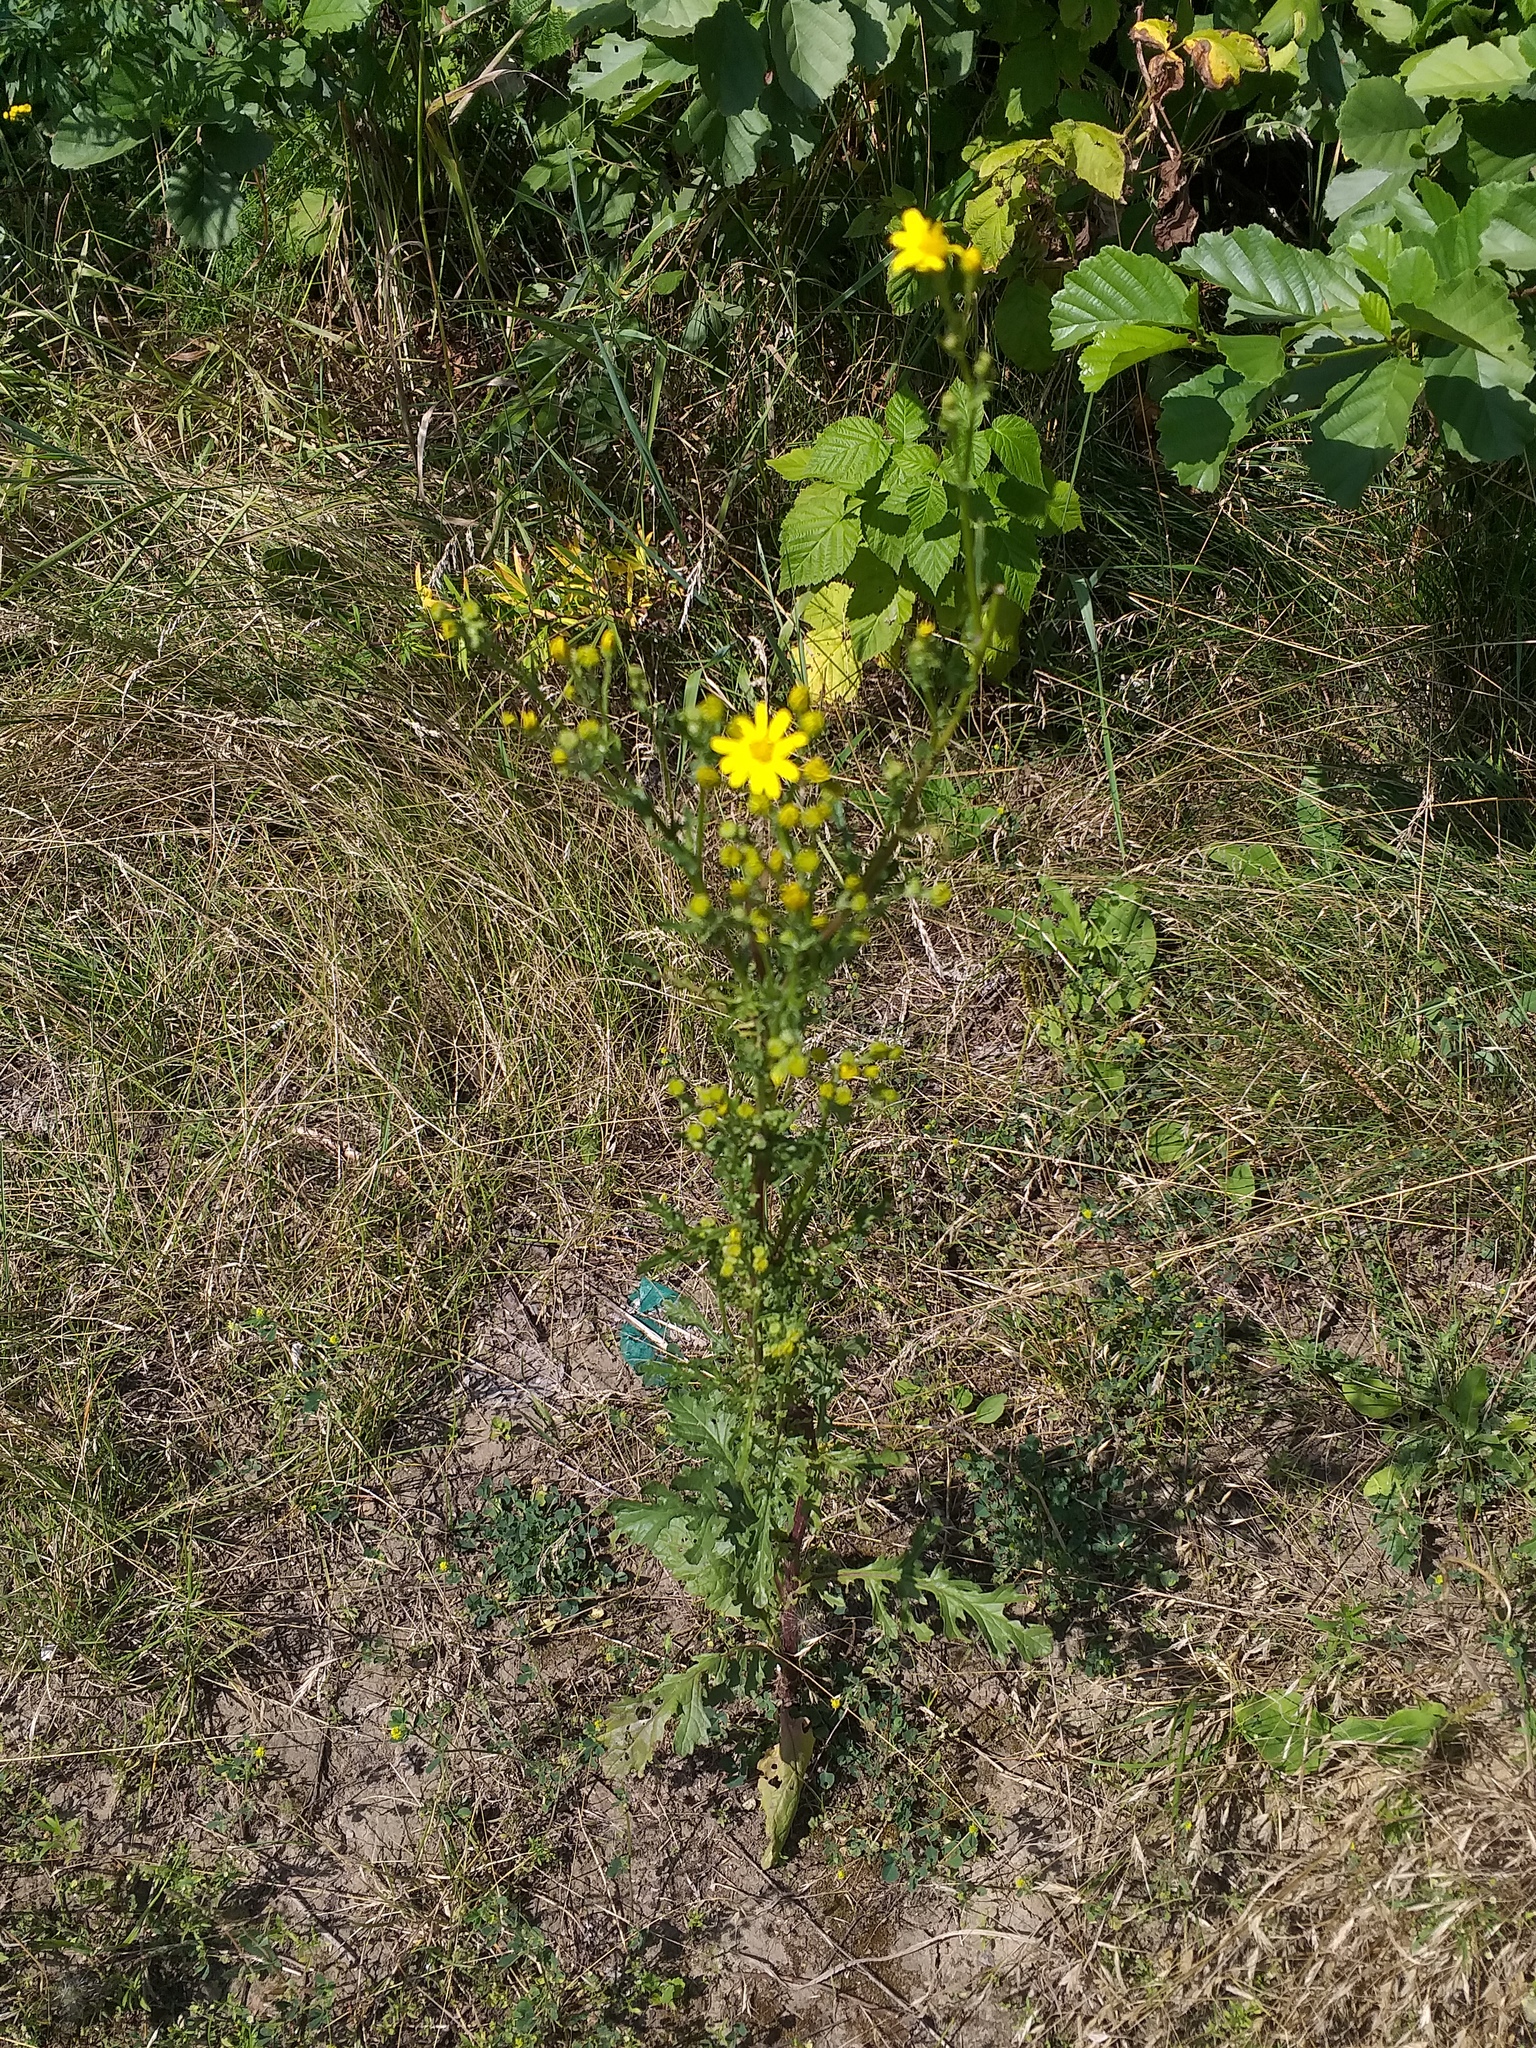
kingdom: Plantae
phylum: Tracheophyta
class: Magnoliopsida
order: Asterales
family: Asteraceae
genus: Jacobaea
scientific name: Jacobaea vulgaris
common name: Stinking willie
